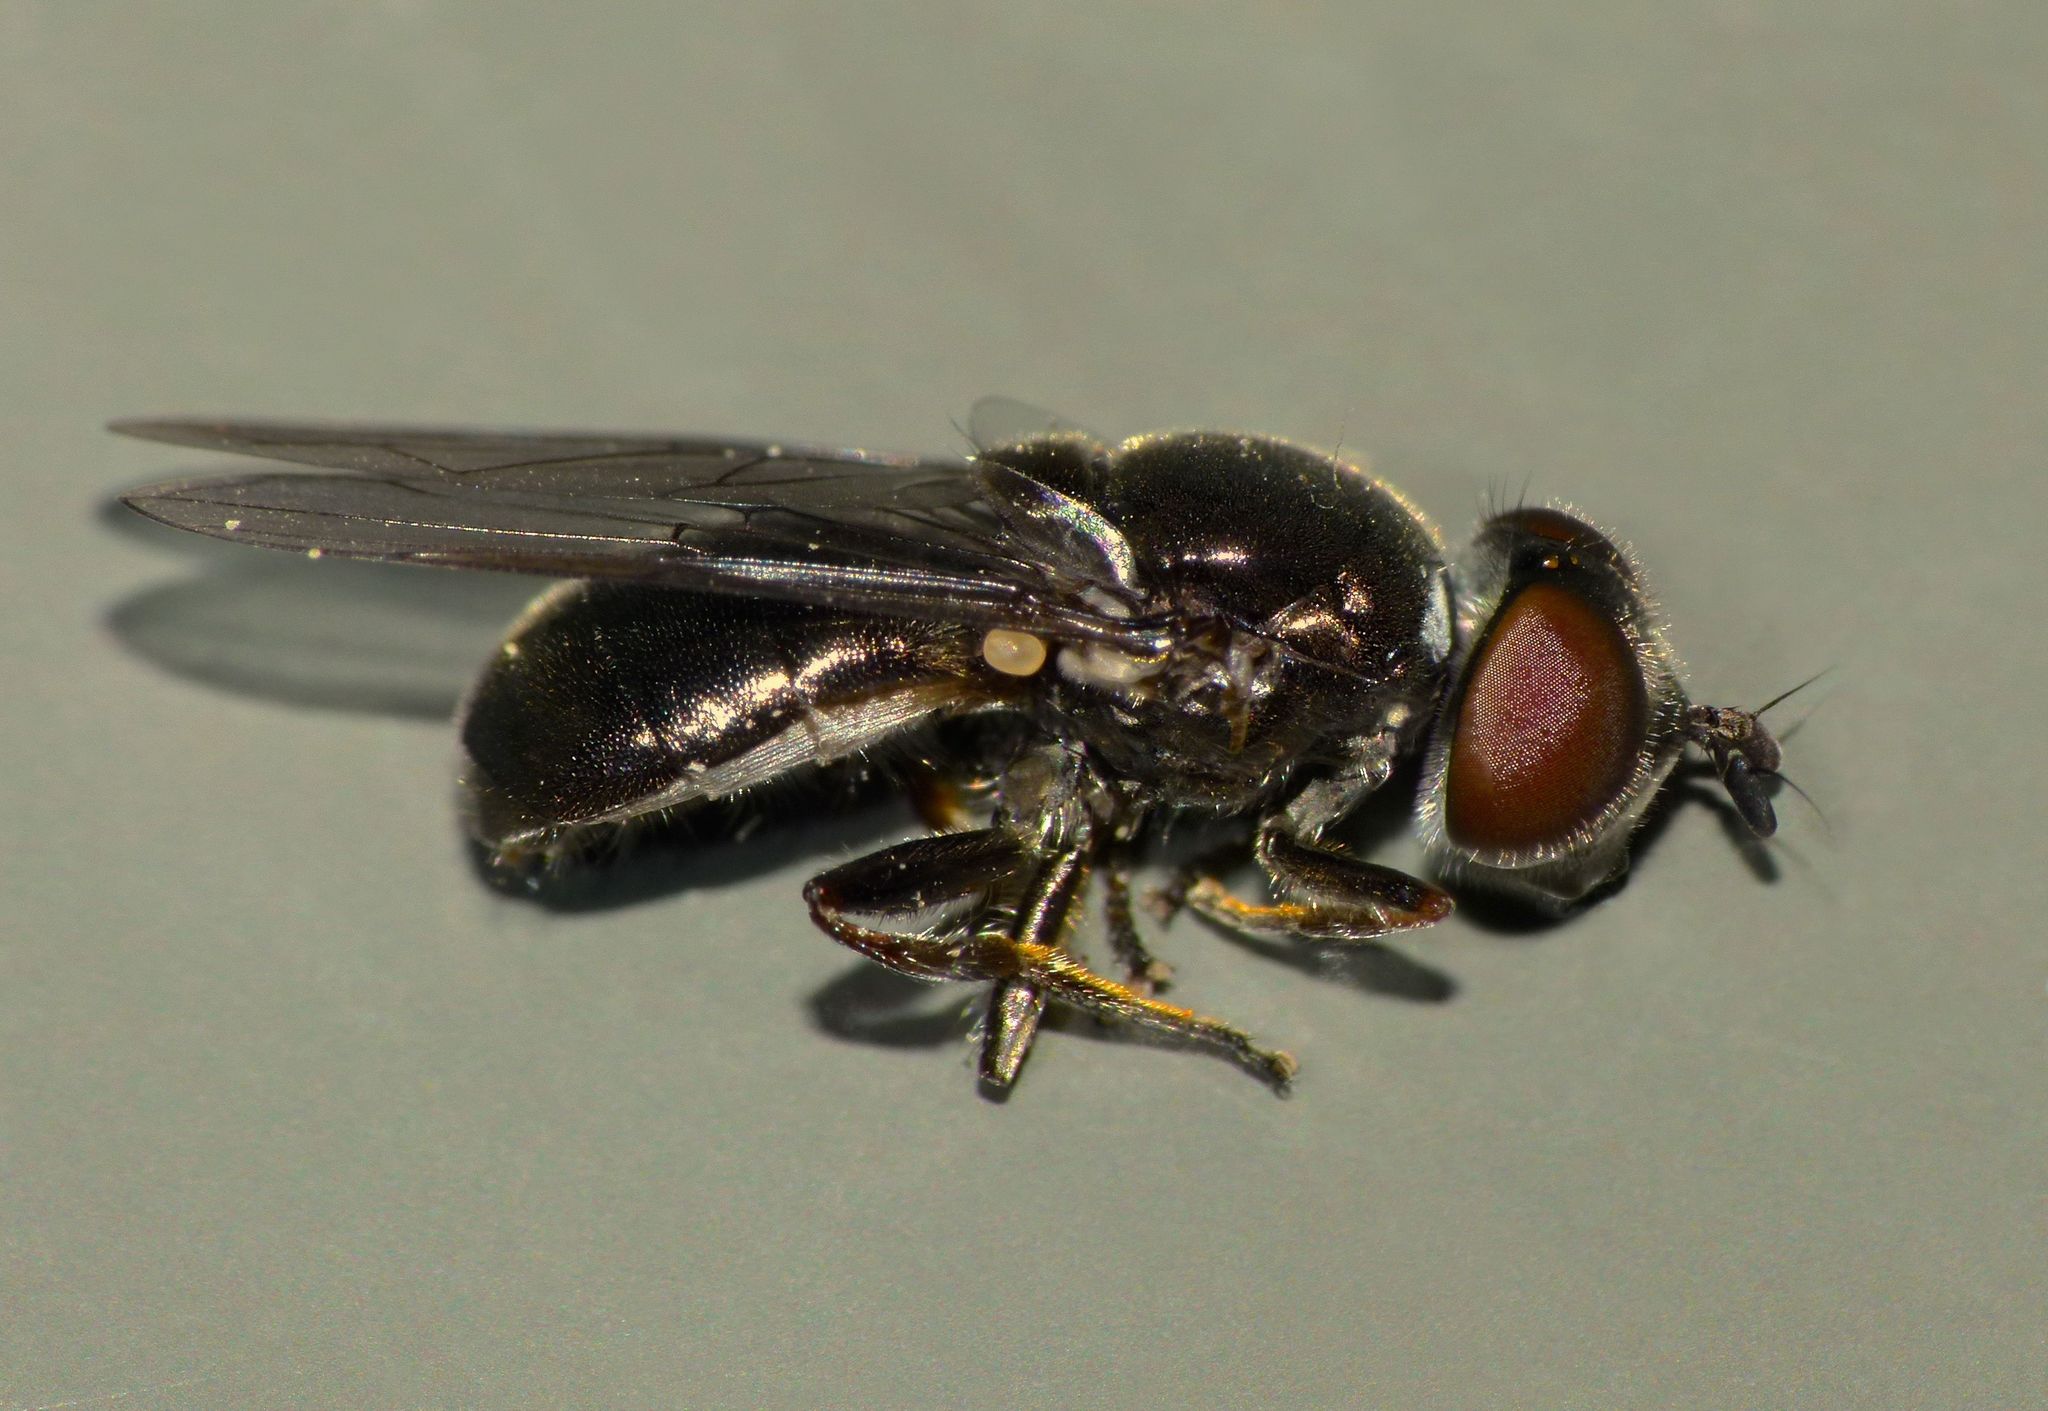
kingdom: Animalia
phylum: Arthropoda
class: Insecta
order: Diptera
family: Syrphidae
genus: Psilota
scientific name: Psilota decessum
